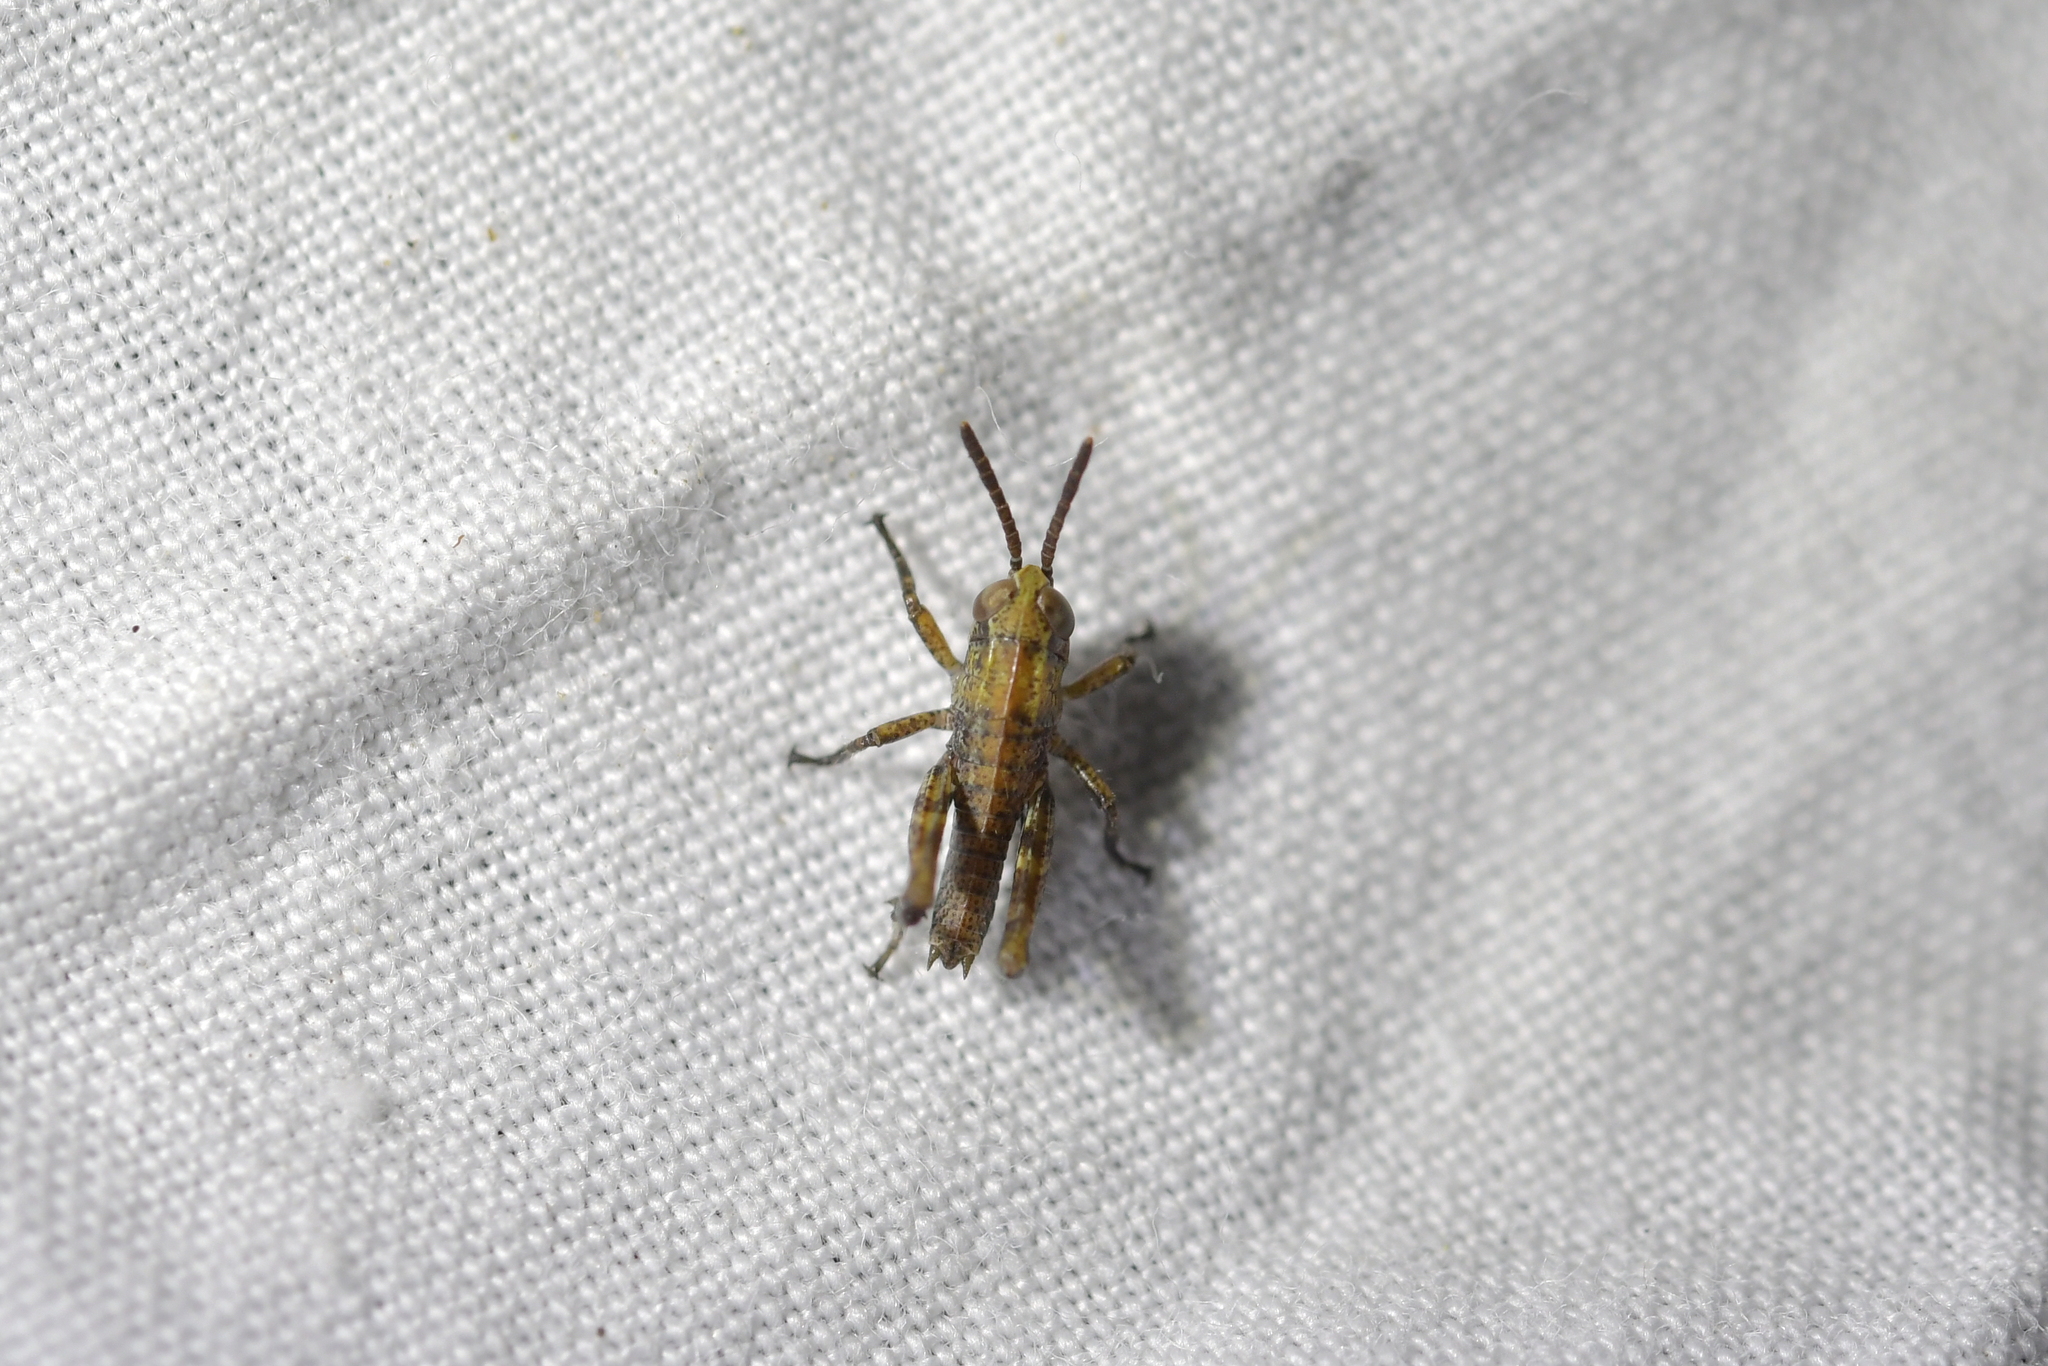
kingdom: Animalia
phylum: Arthropoda
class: Insecta
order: Orthoptera
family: Acrididae
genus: Phaulacridium
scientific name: Phaulacridium marginale
